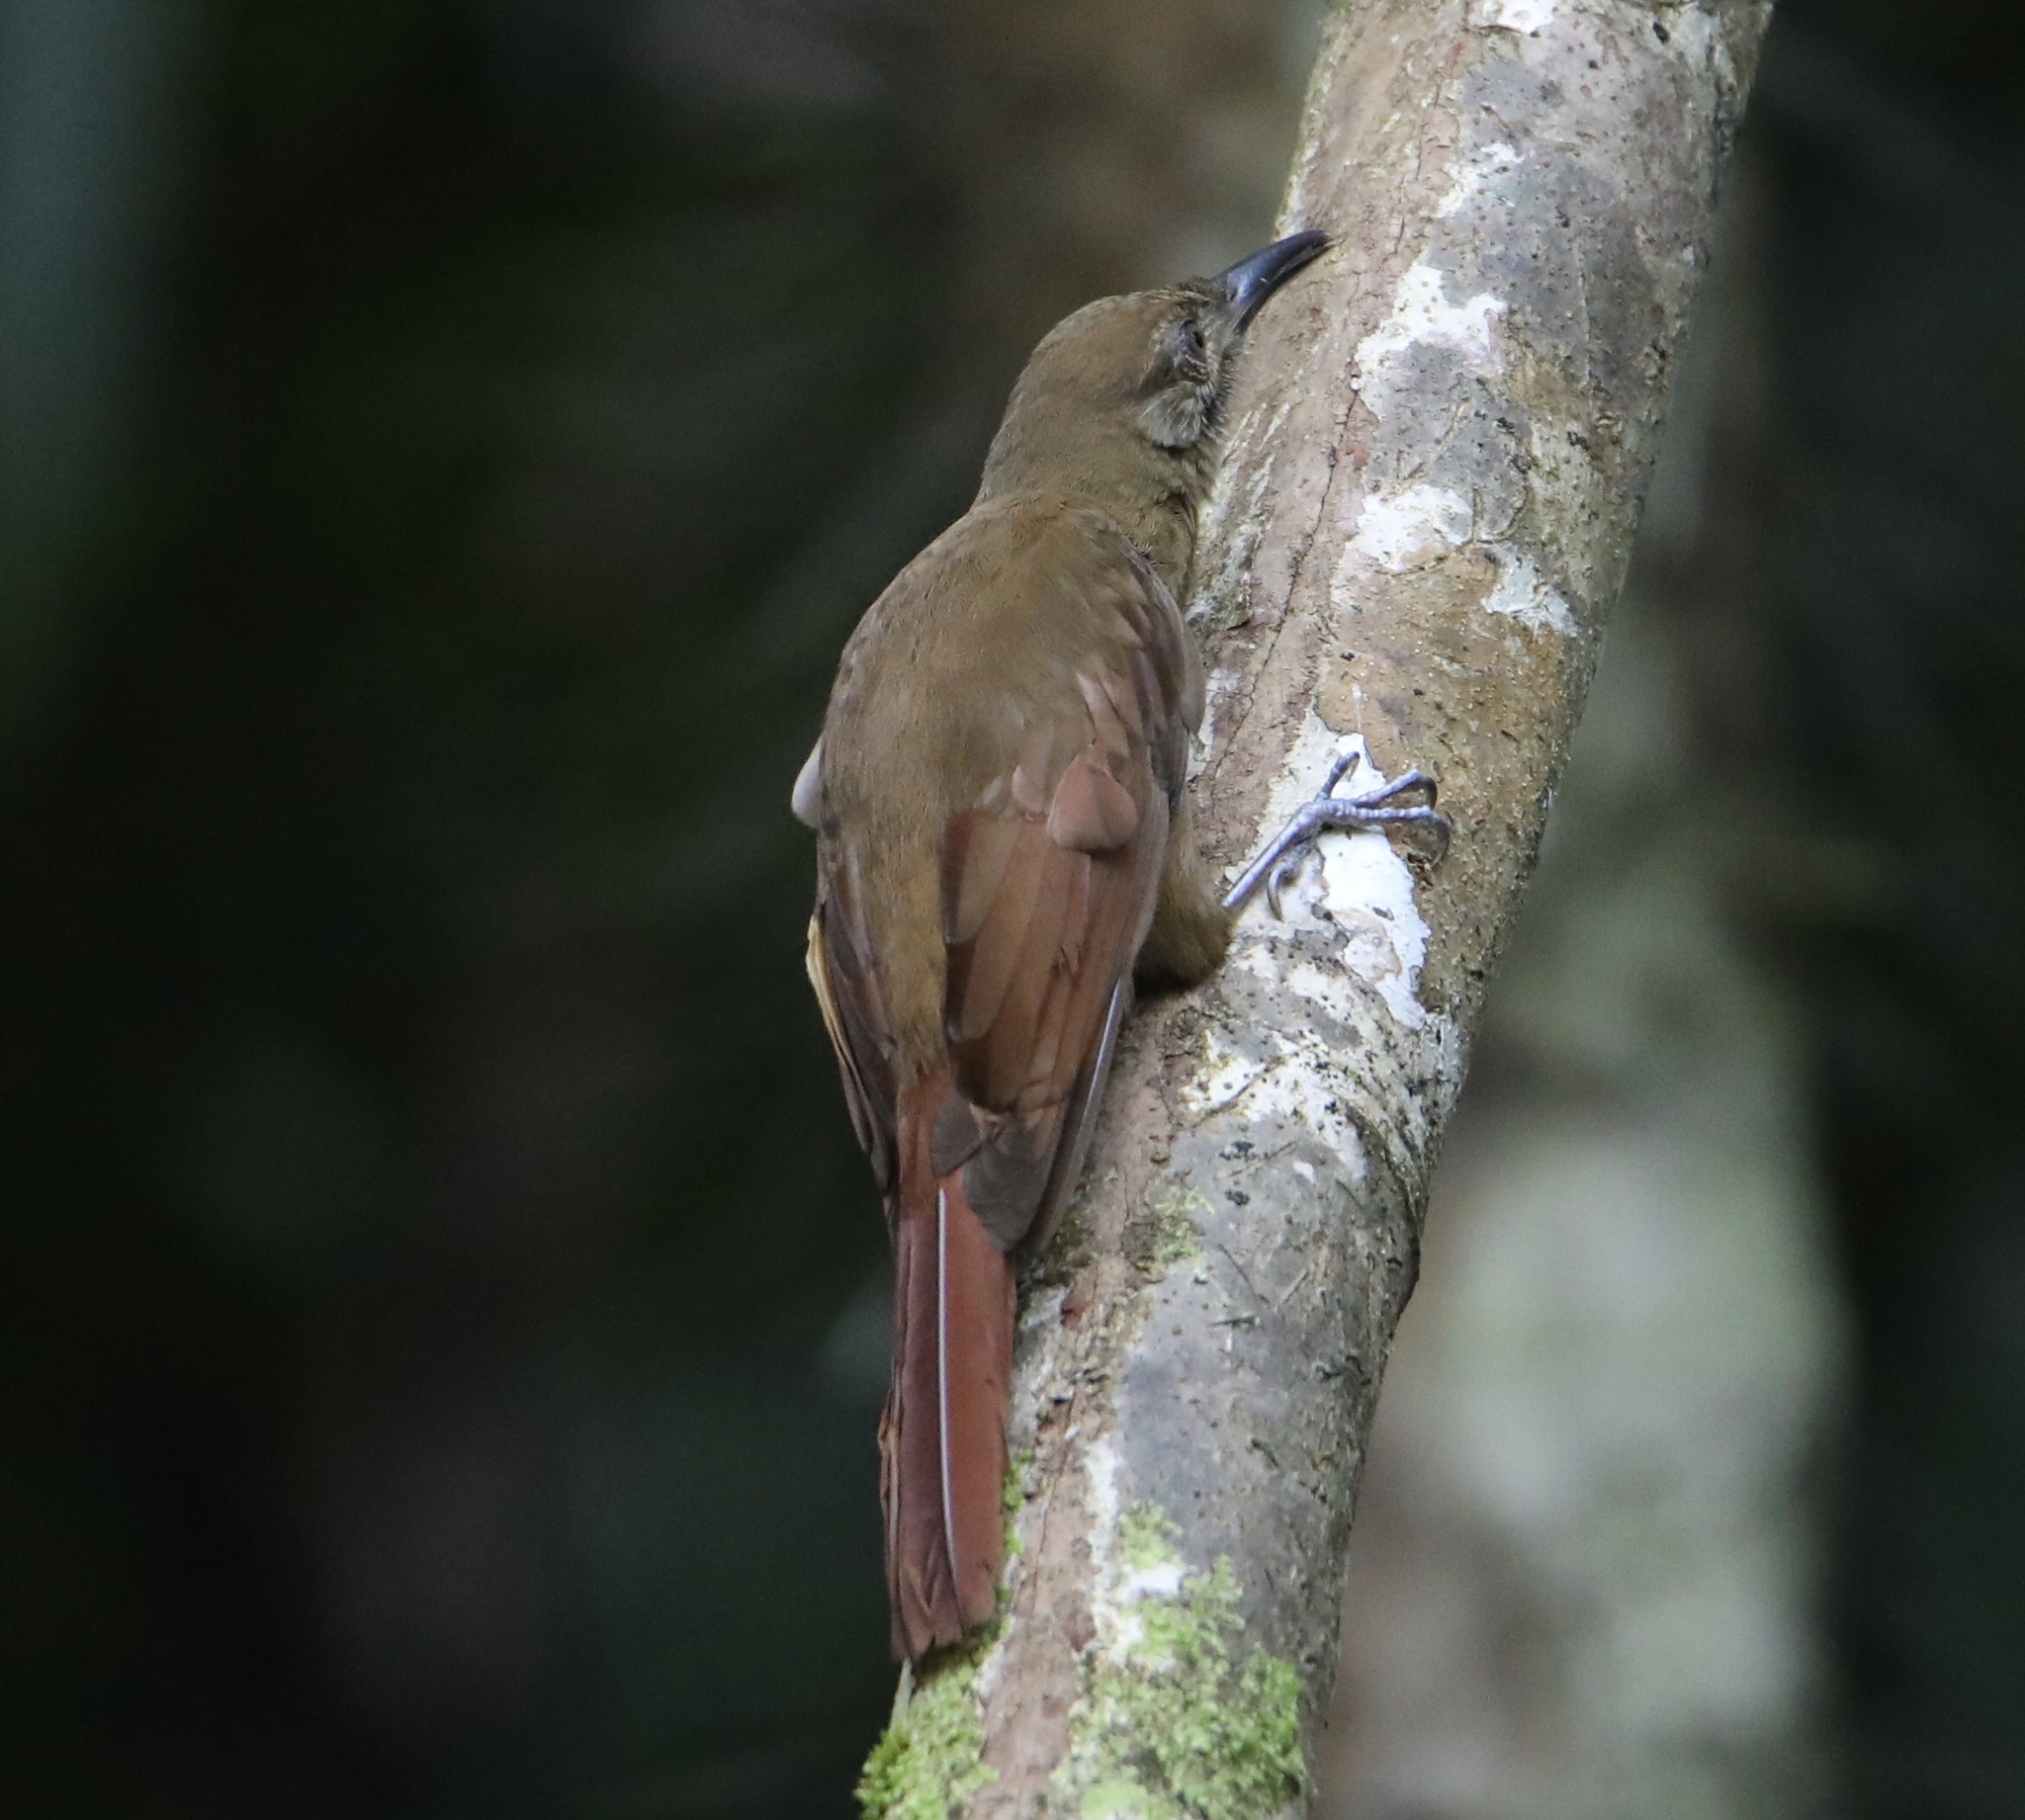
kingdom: Animalia
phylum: Chordata
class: Aves
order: Passeriformes
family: Furnariidae
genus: Dendrocincla
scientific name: Dendrocincla fuliginosa
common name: Plain-brown woodcreeper
